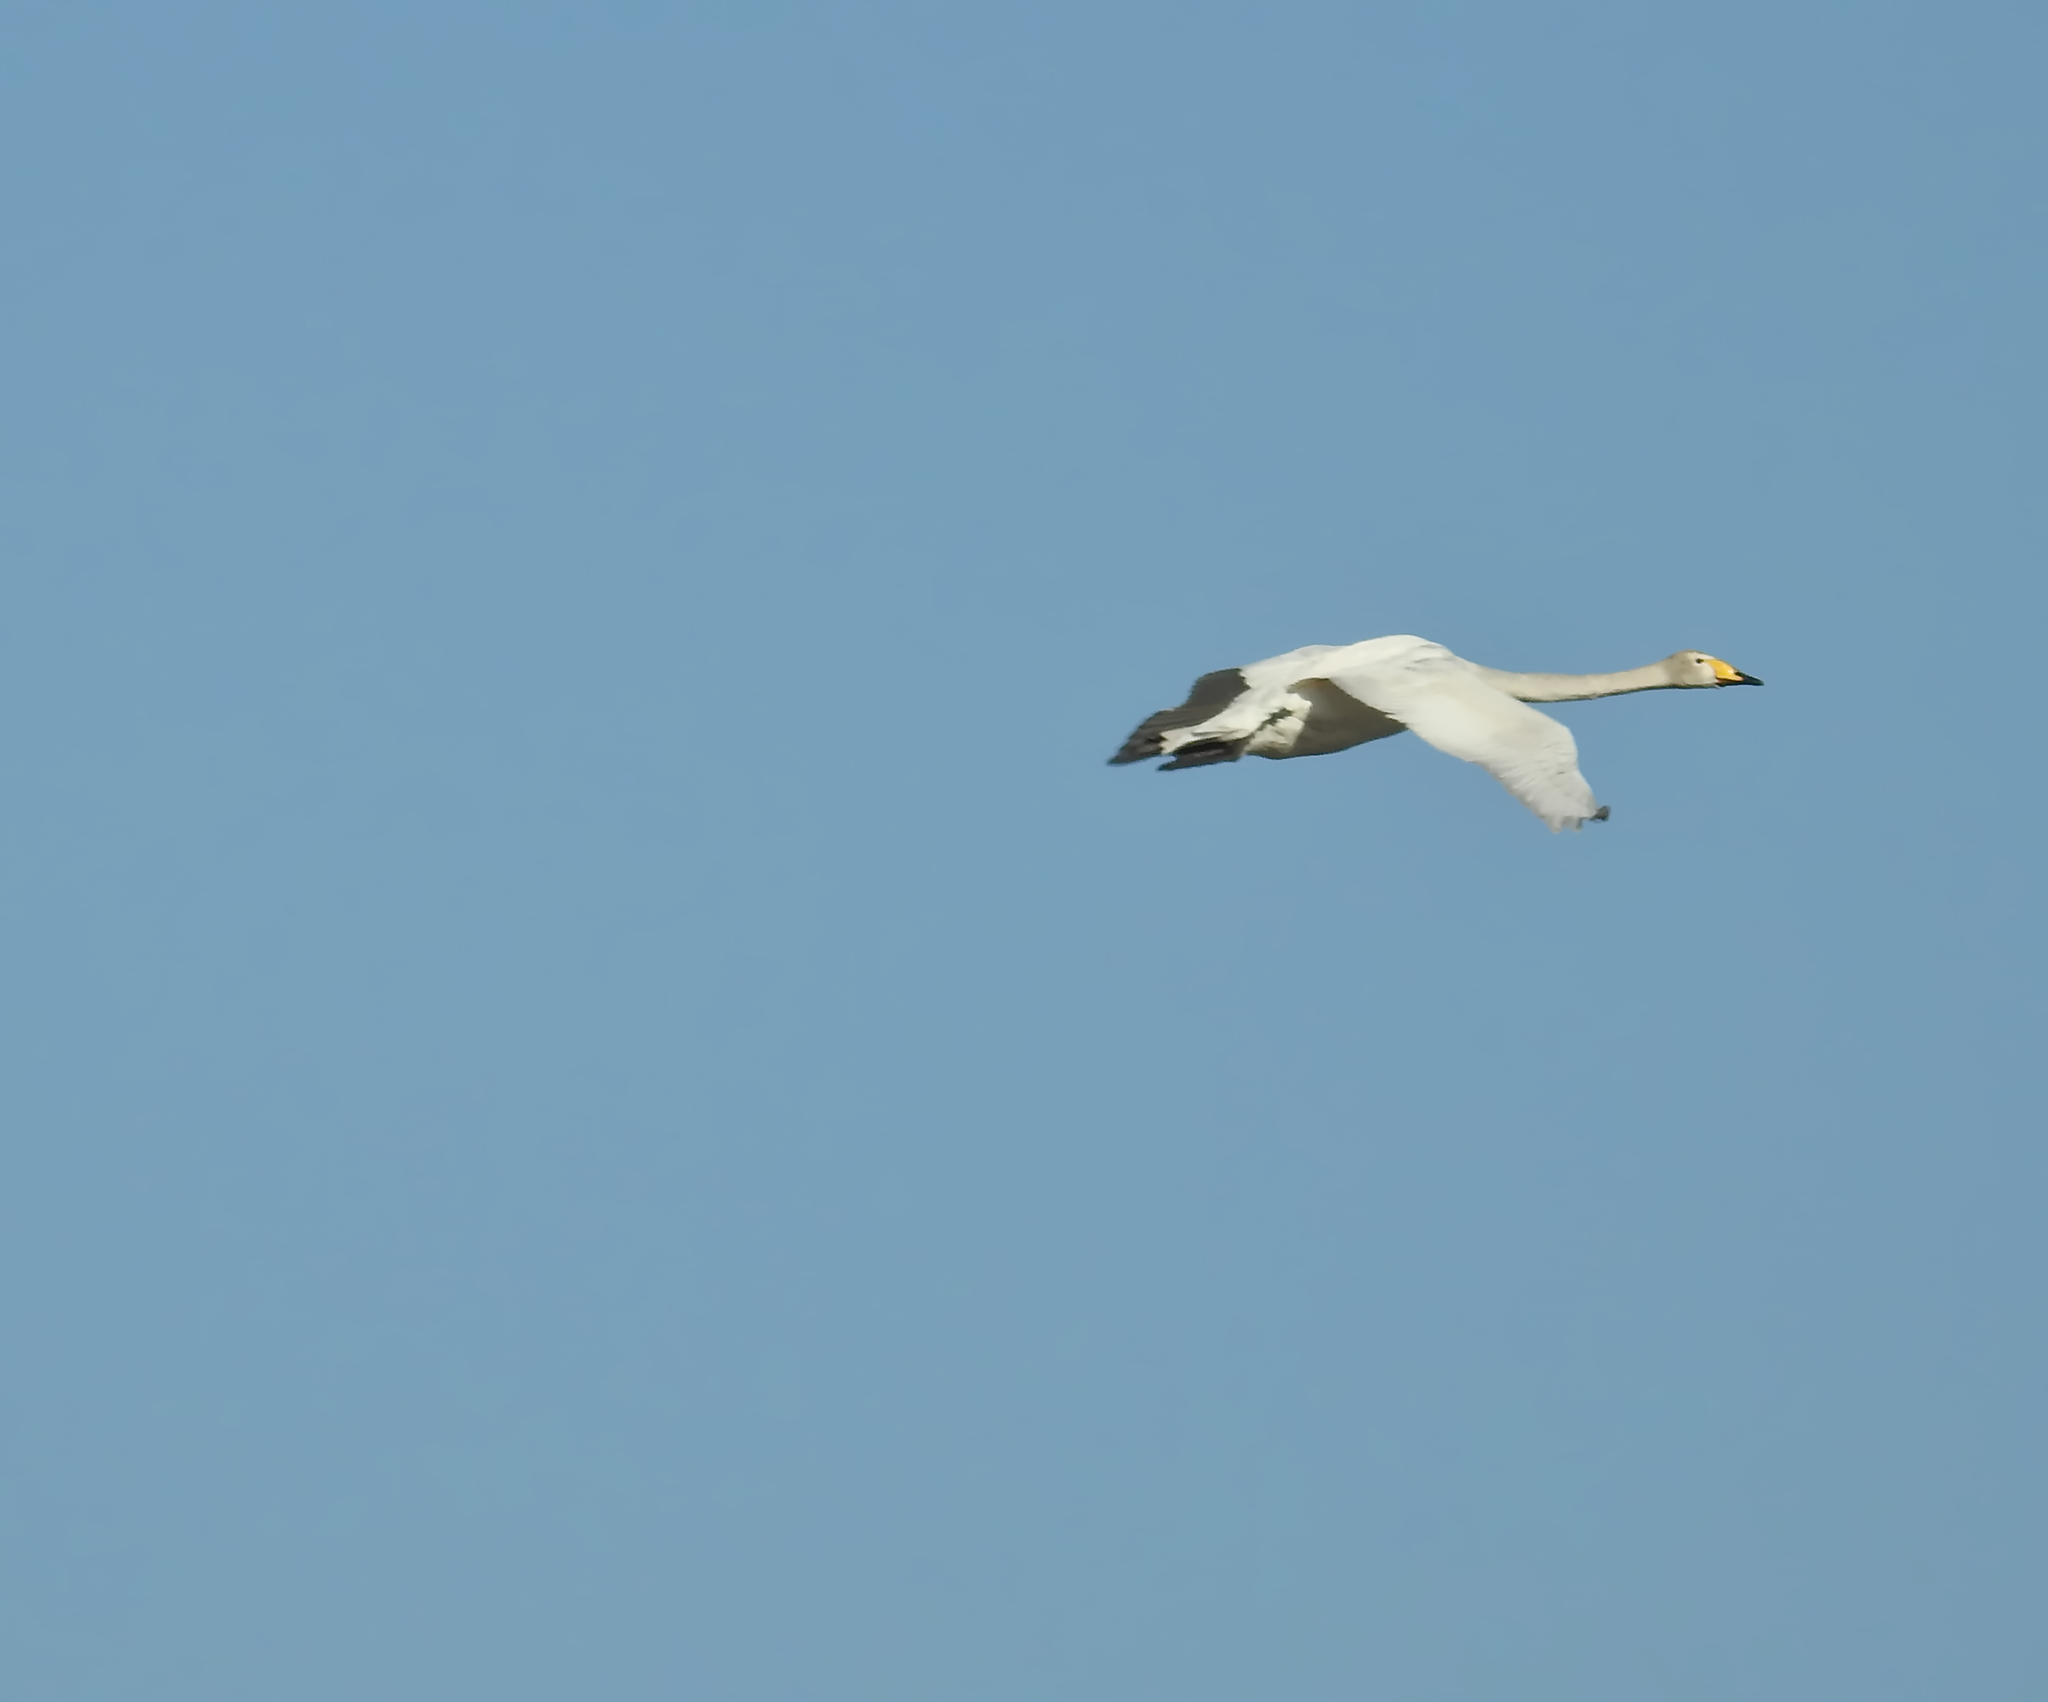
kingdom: Animalia
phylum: Chordata
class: Aves
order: Anseriformes
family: Anatidae
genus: Cygnus
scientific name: Cygnus cygnus
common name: Whooper swan
